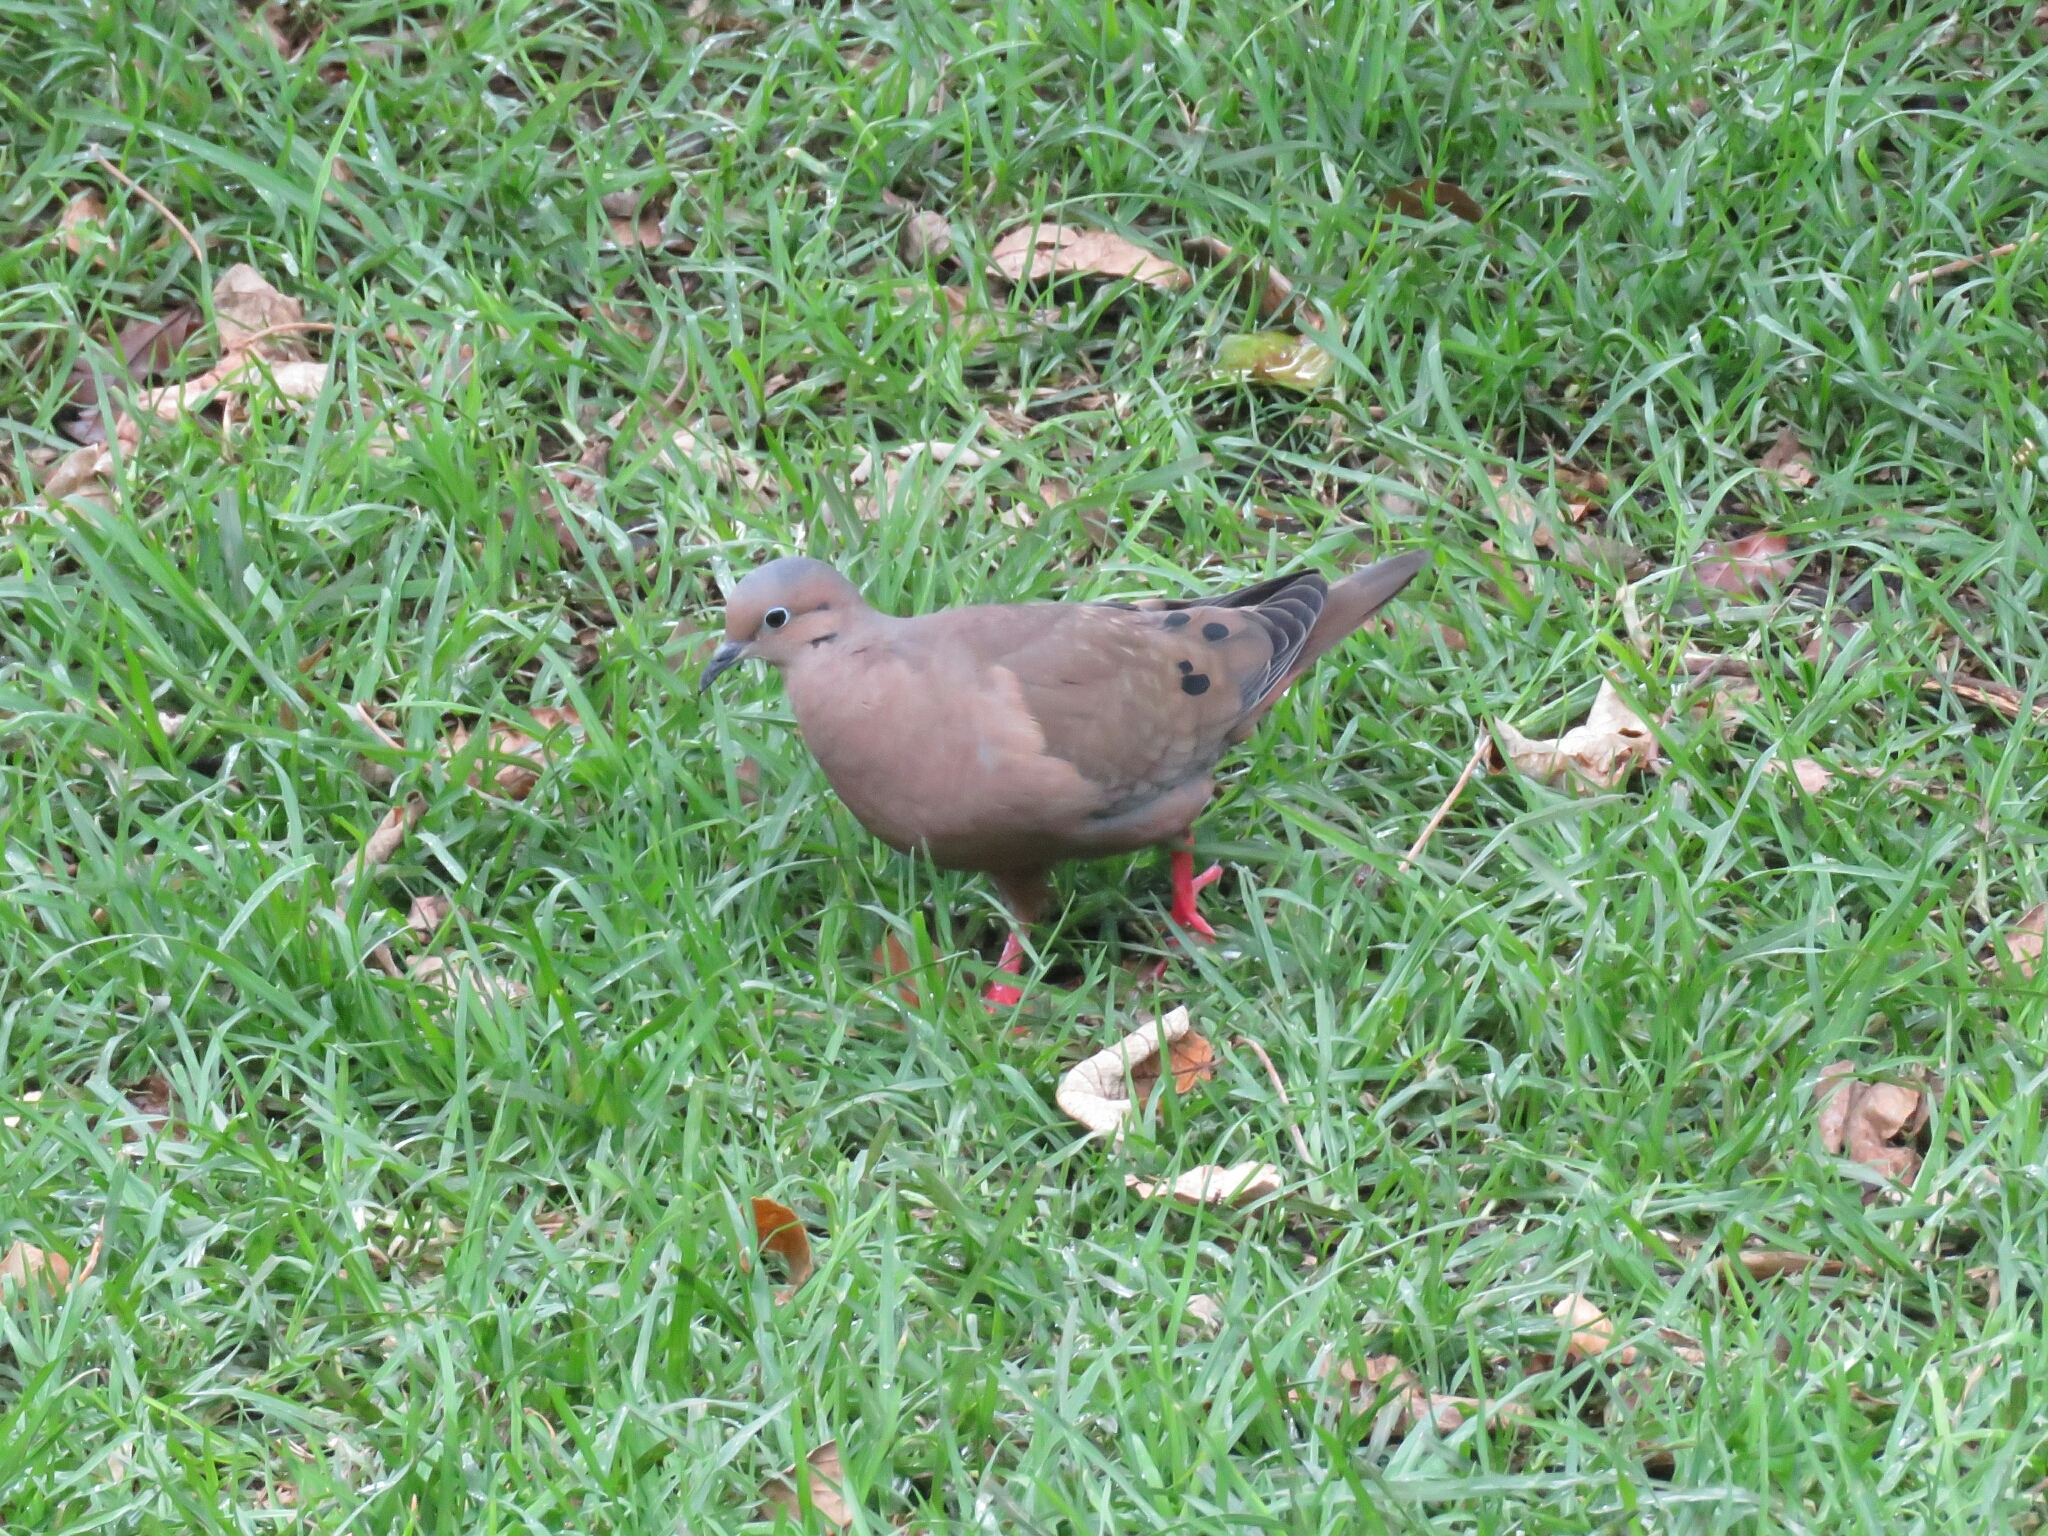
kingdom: Animalia
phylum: Chordata
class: Aves
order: Columbiformes
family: Columbidae
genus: Zenaida
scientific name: Zenaida auriculata
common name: Eared dove
